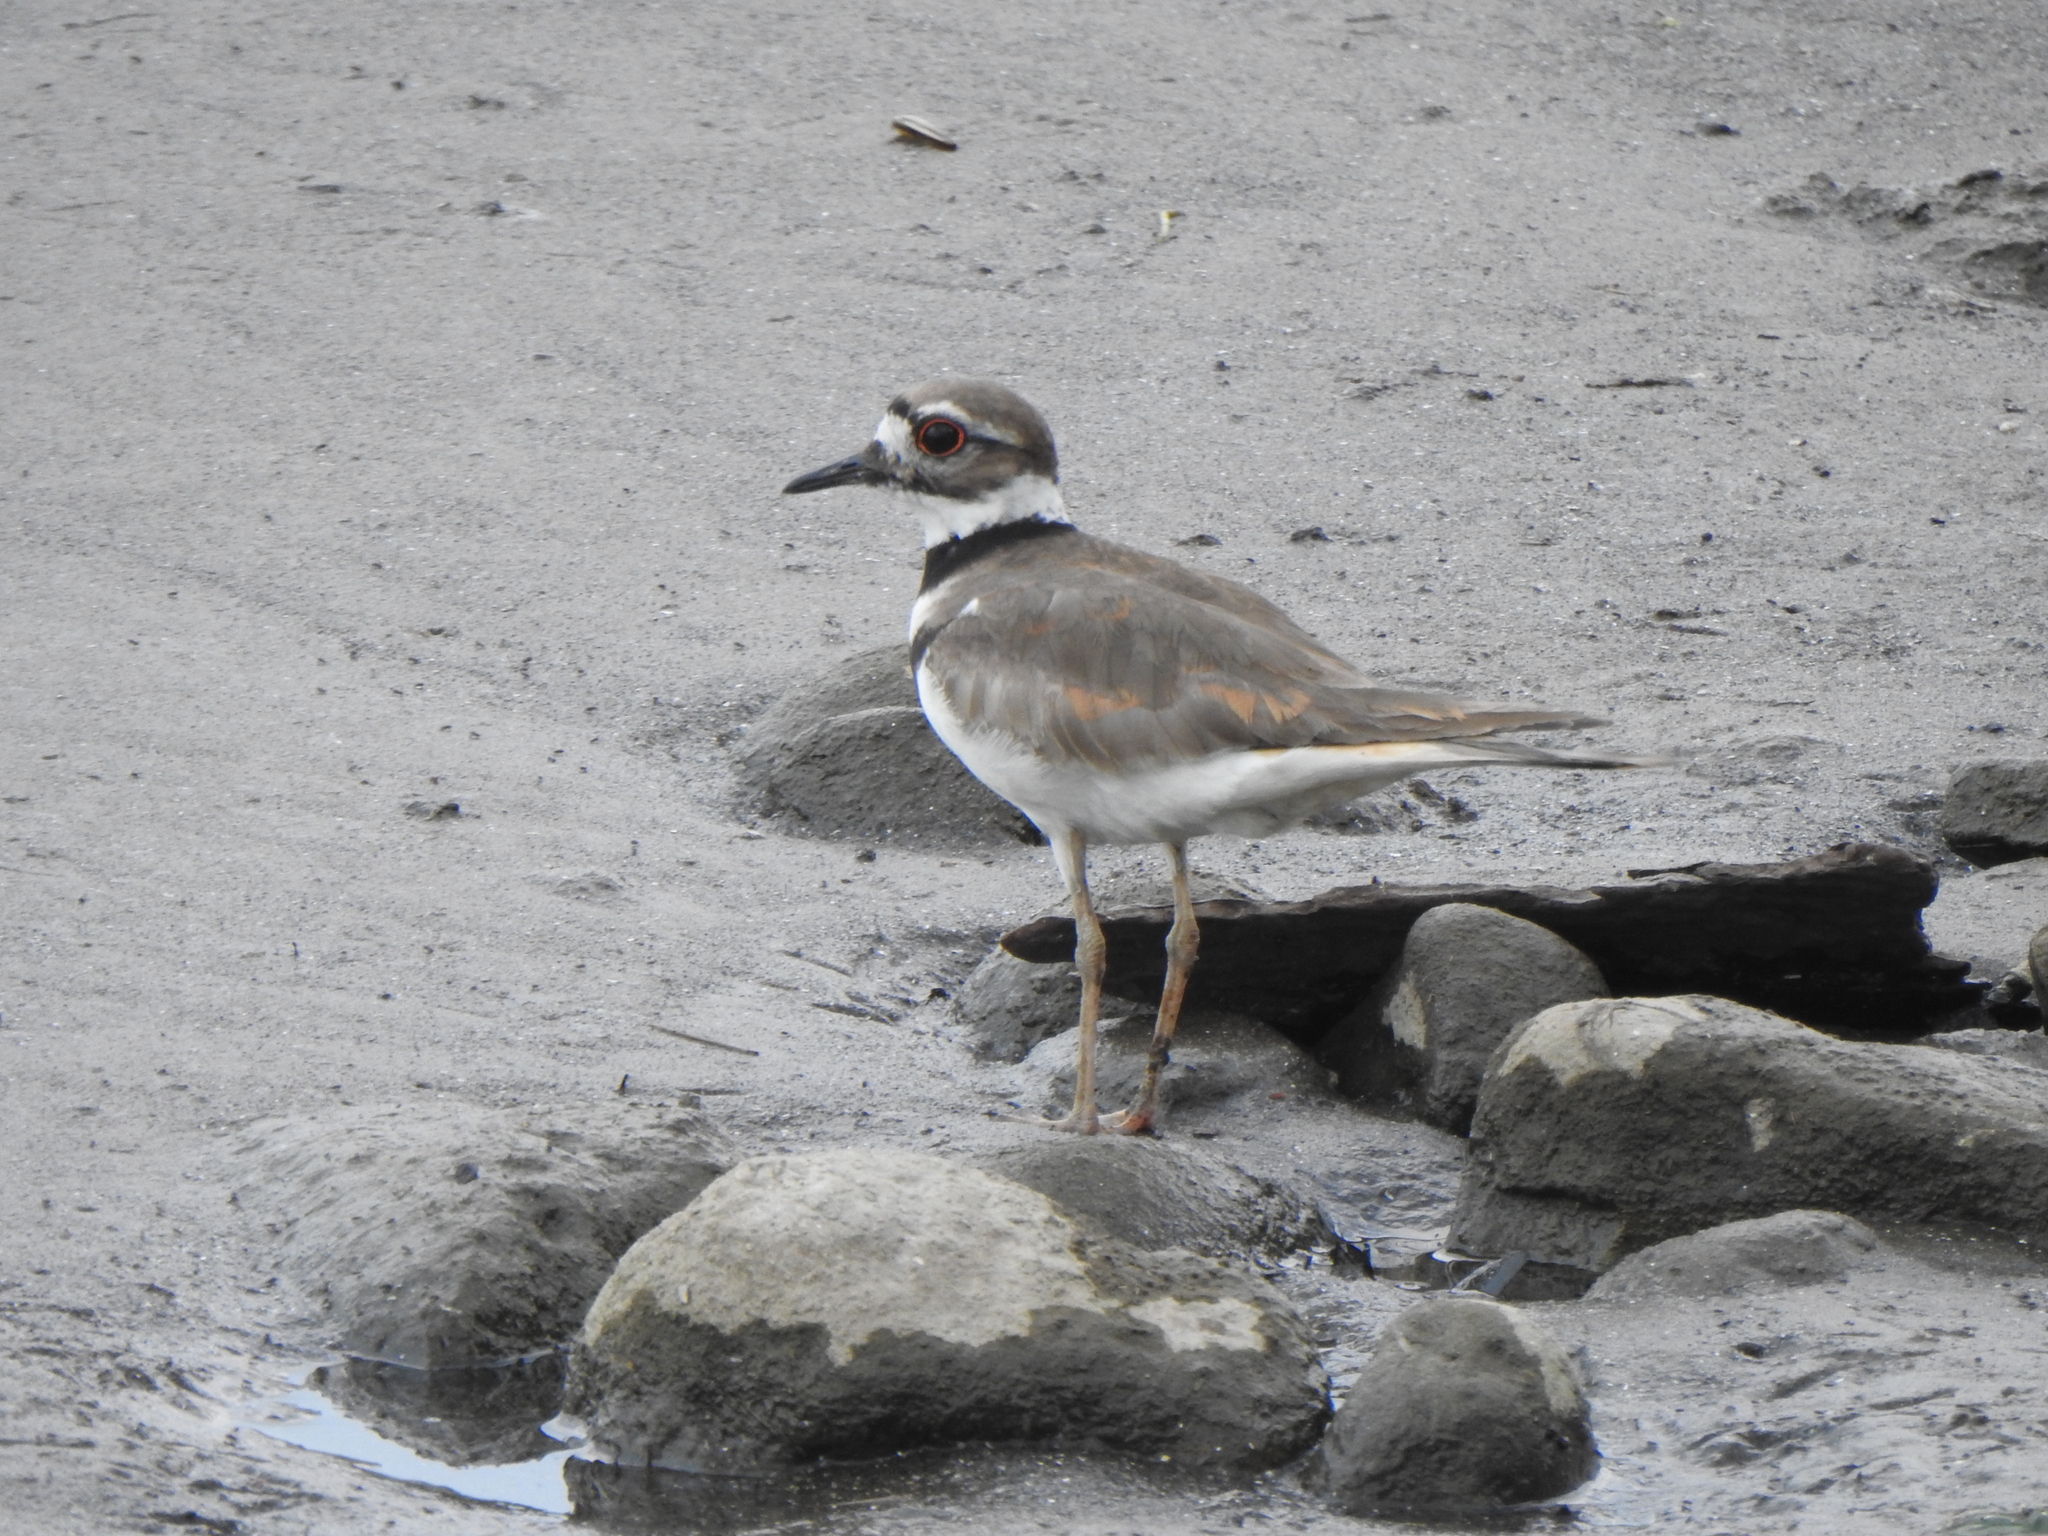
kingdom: Animalia
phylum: Chordata
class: Aves
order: Charadriiformes
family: Charadriidae
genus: Charadrius
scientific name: Charadrius vociferus
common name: Killdeer
